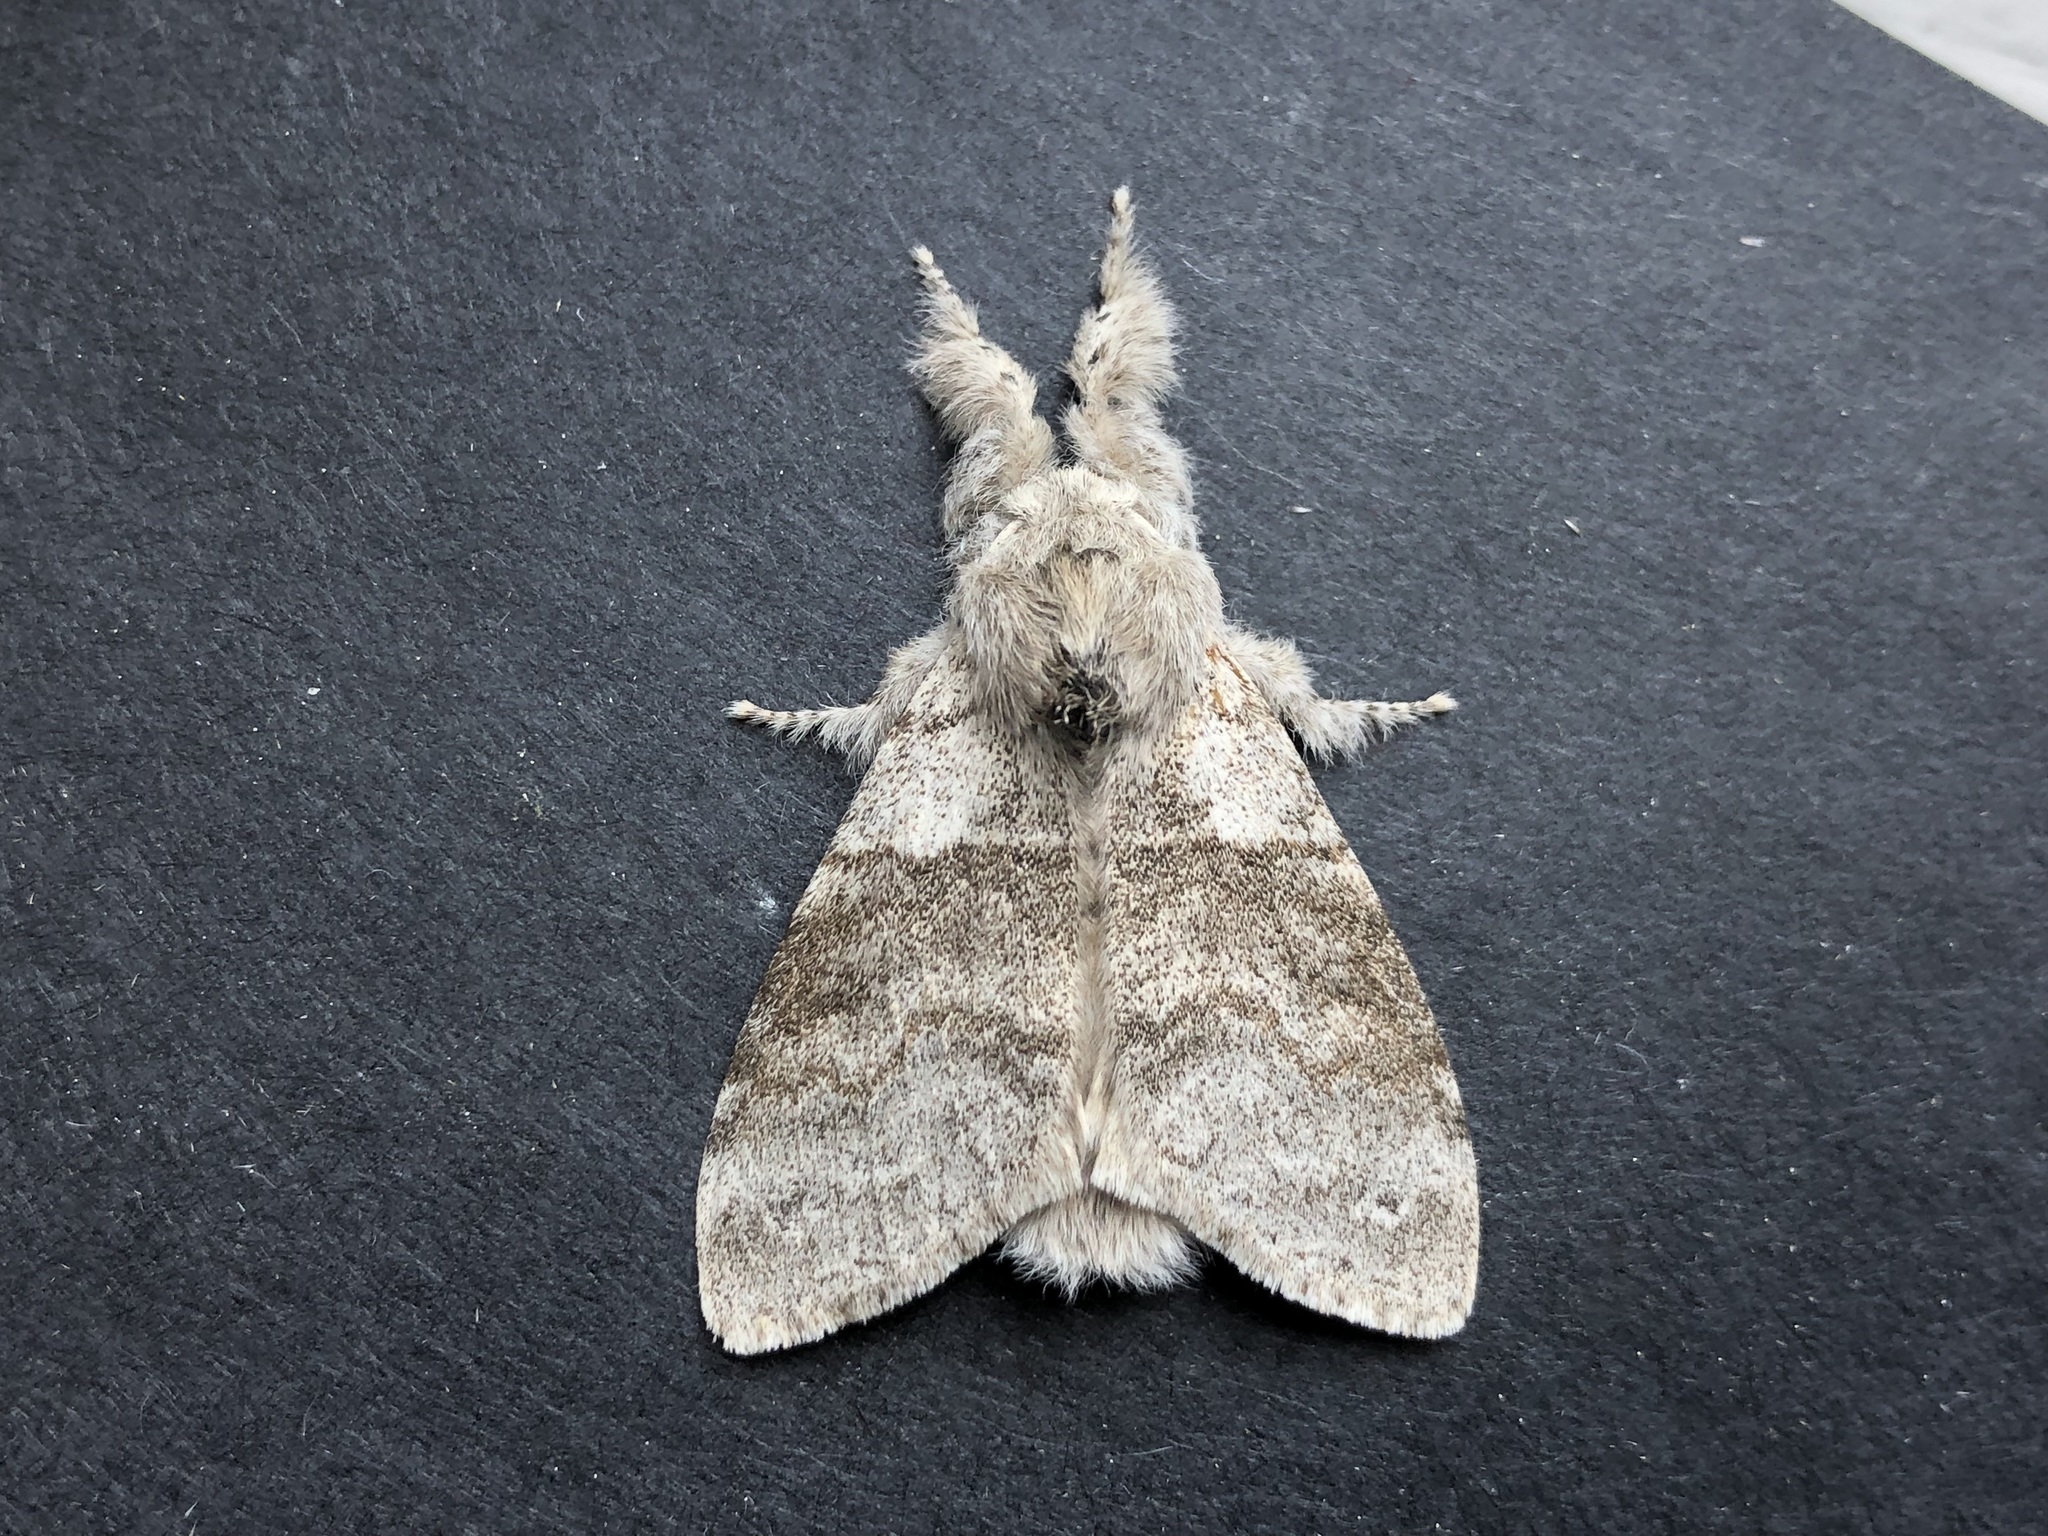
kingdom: Animalia
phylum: Arthropoda
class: Insecta
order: Lepidoptera
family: Erebidae
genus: Calliteara
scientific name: Calliteara pudibunda
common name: Pale tussock
